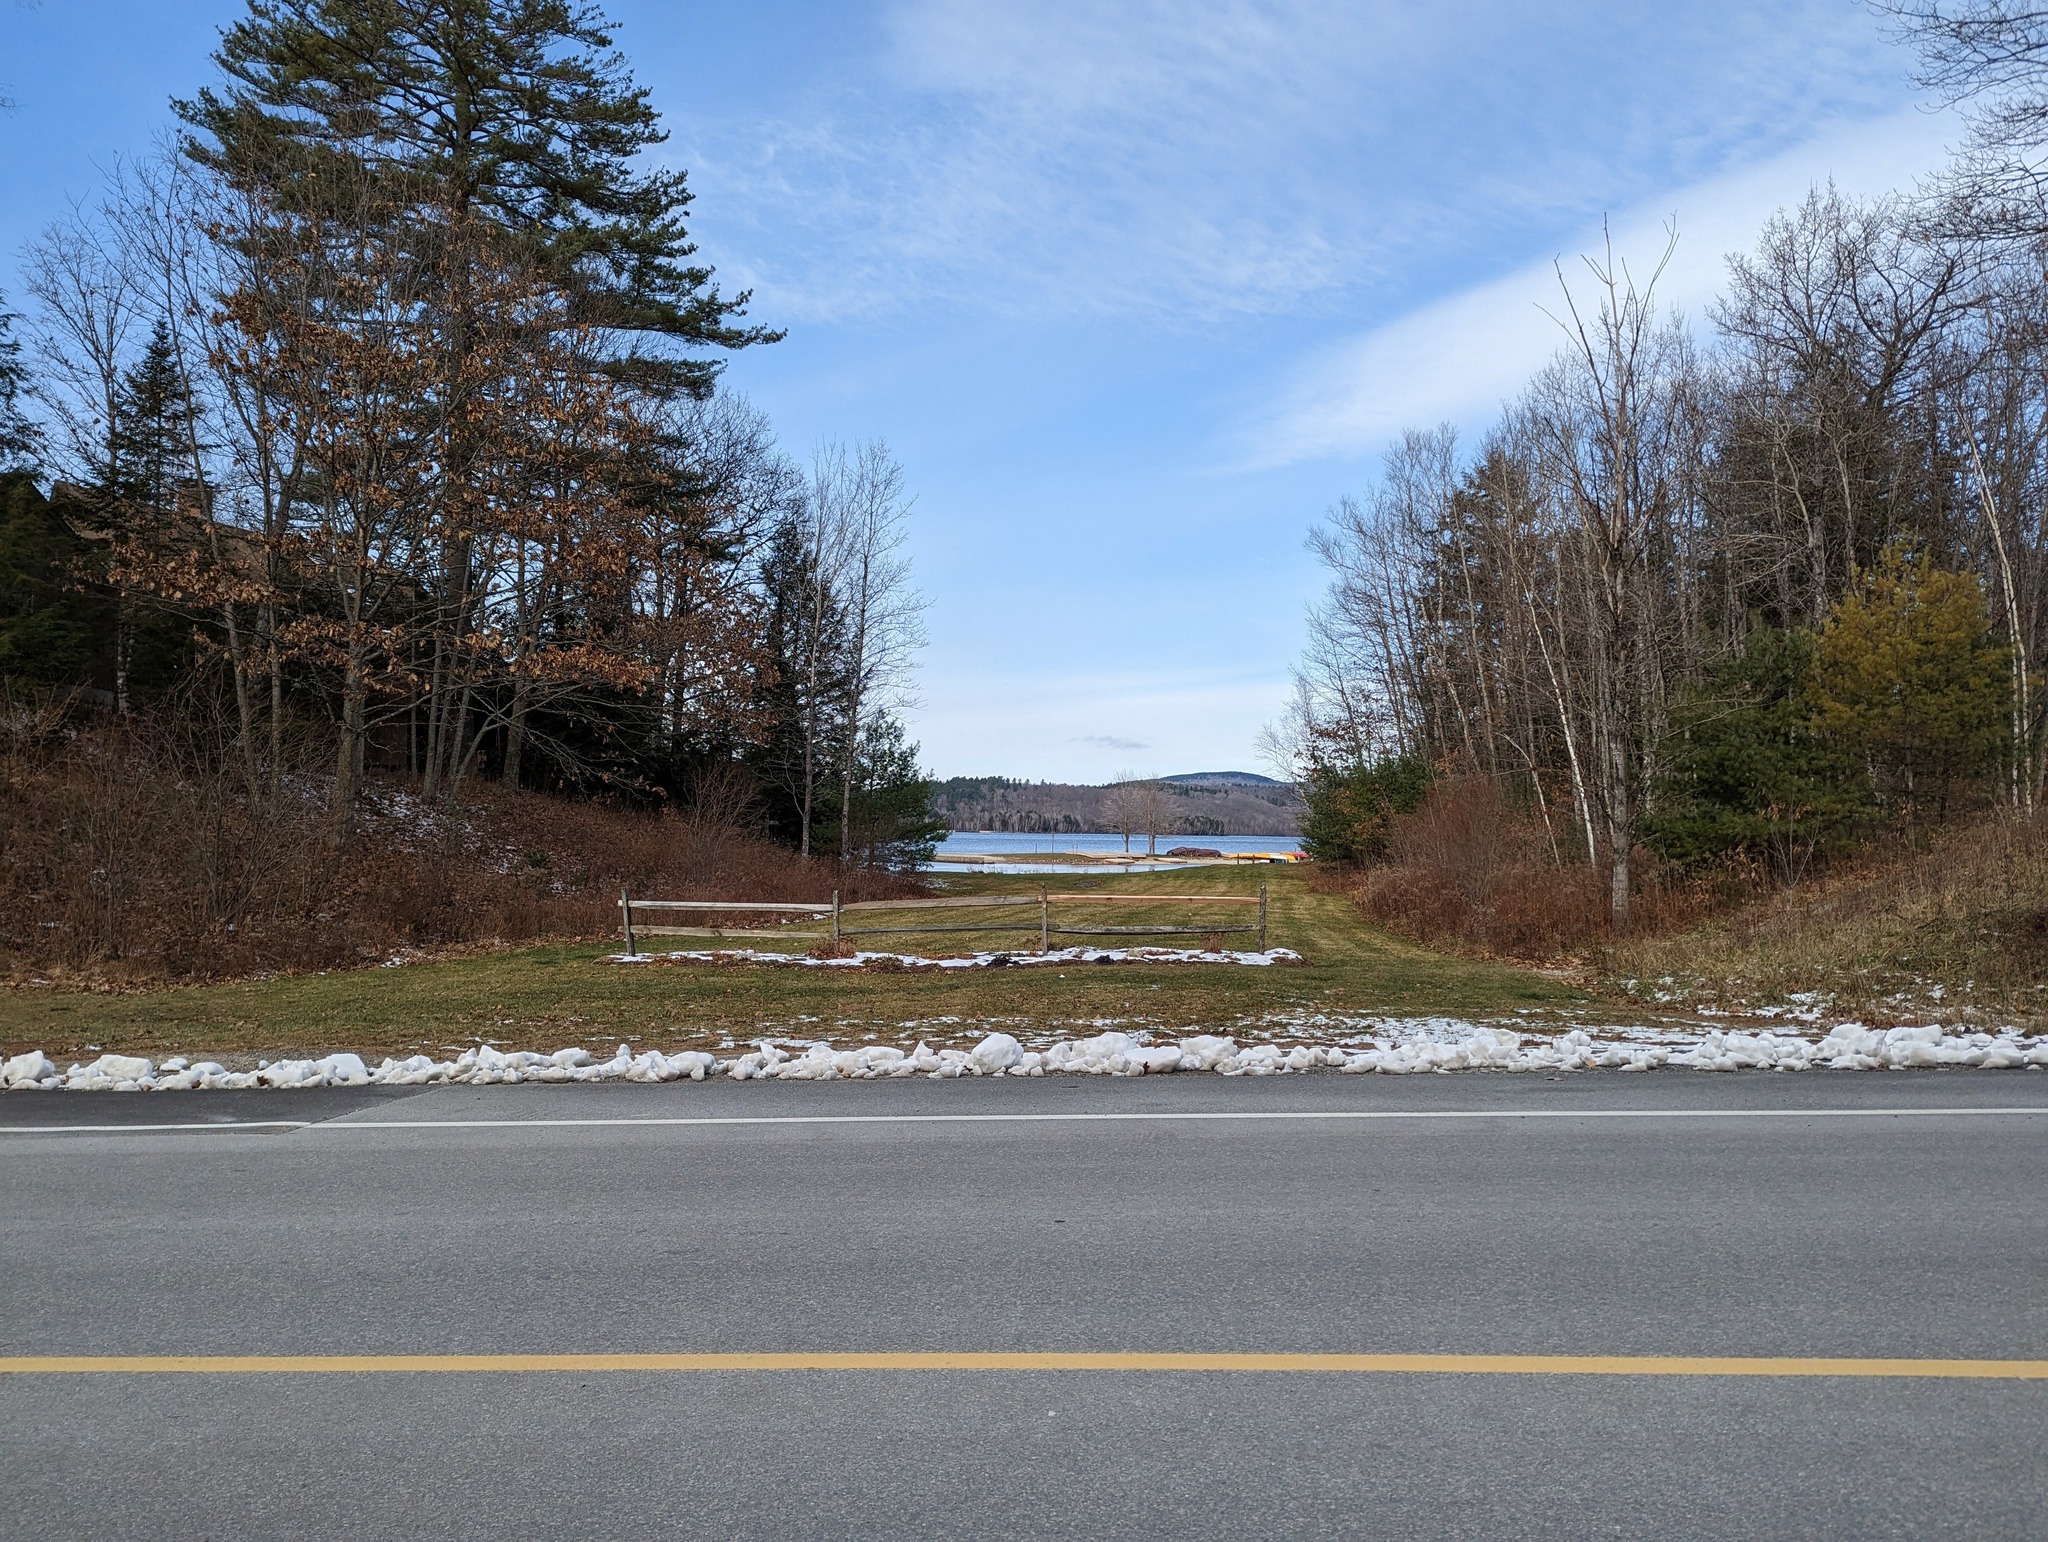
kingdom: Plantae
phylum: Tracheophyta
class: Pinopsida
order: Pinales
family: Pinaceae
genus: Pinus
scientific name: Pinus strobus
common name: Weymouth pine
